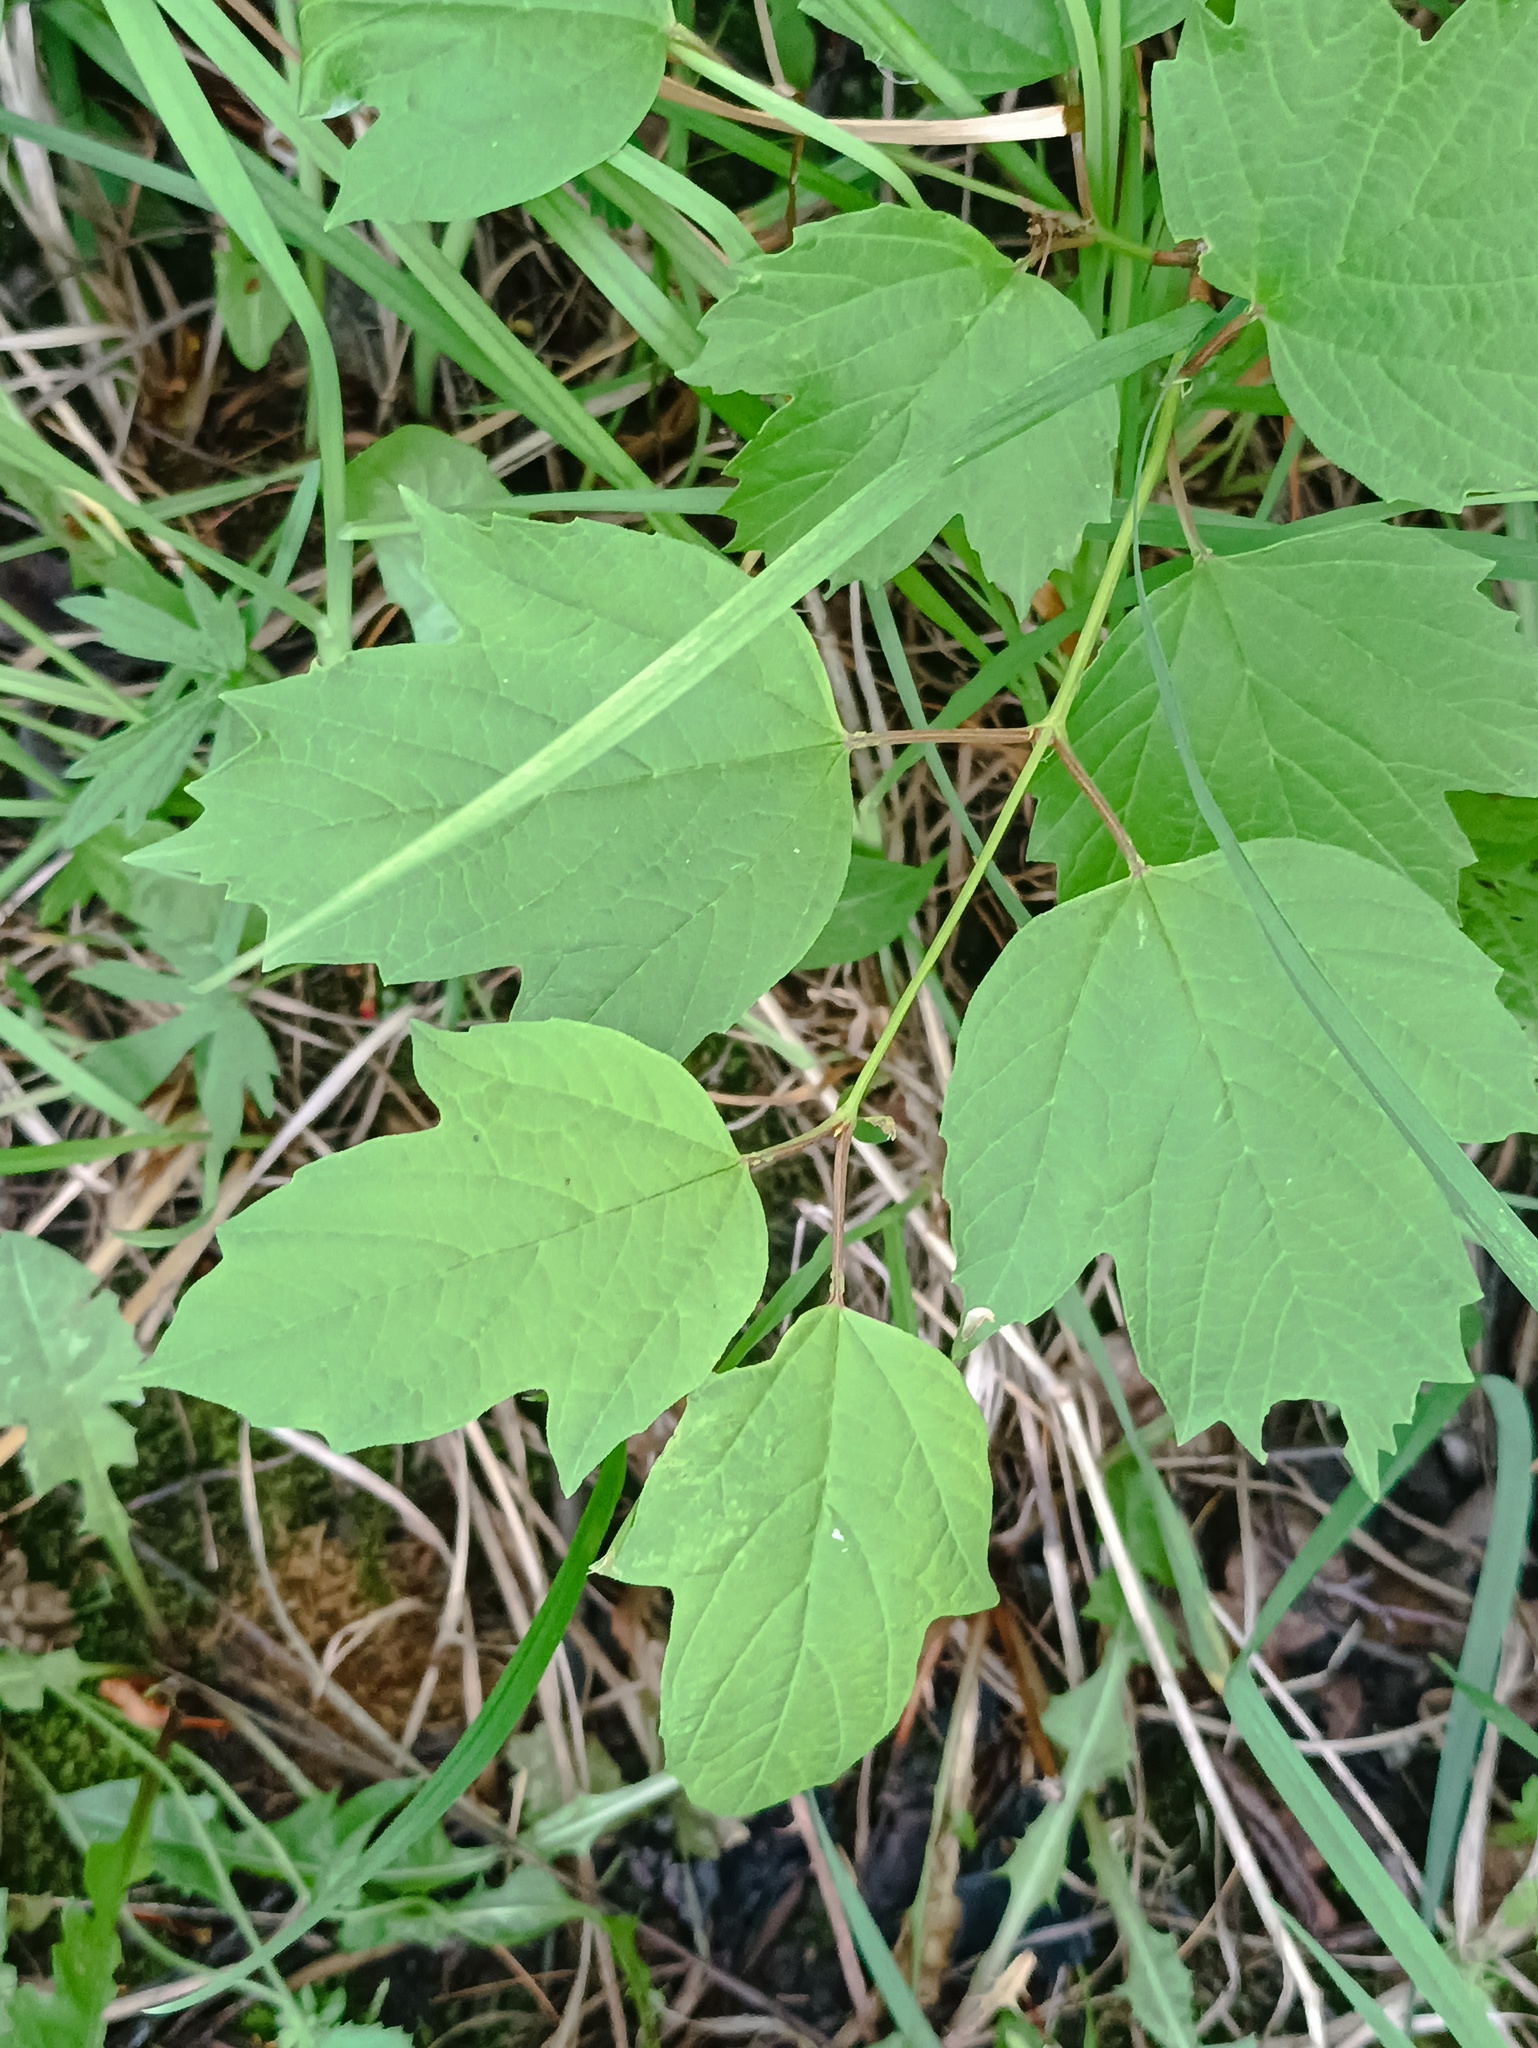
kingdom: Plantae
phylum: Tracheophyta
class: Magnoliopsida
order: Dipsacales
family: Viburnaceae
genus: Viburnum
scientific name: Viburnum opulus
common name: Guelder-rose
